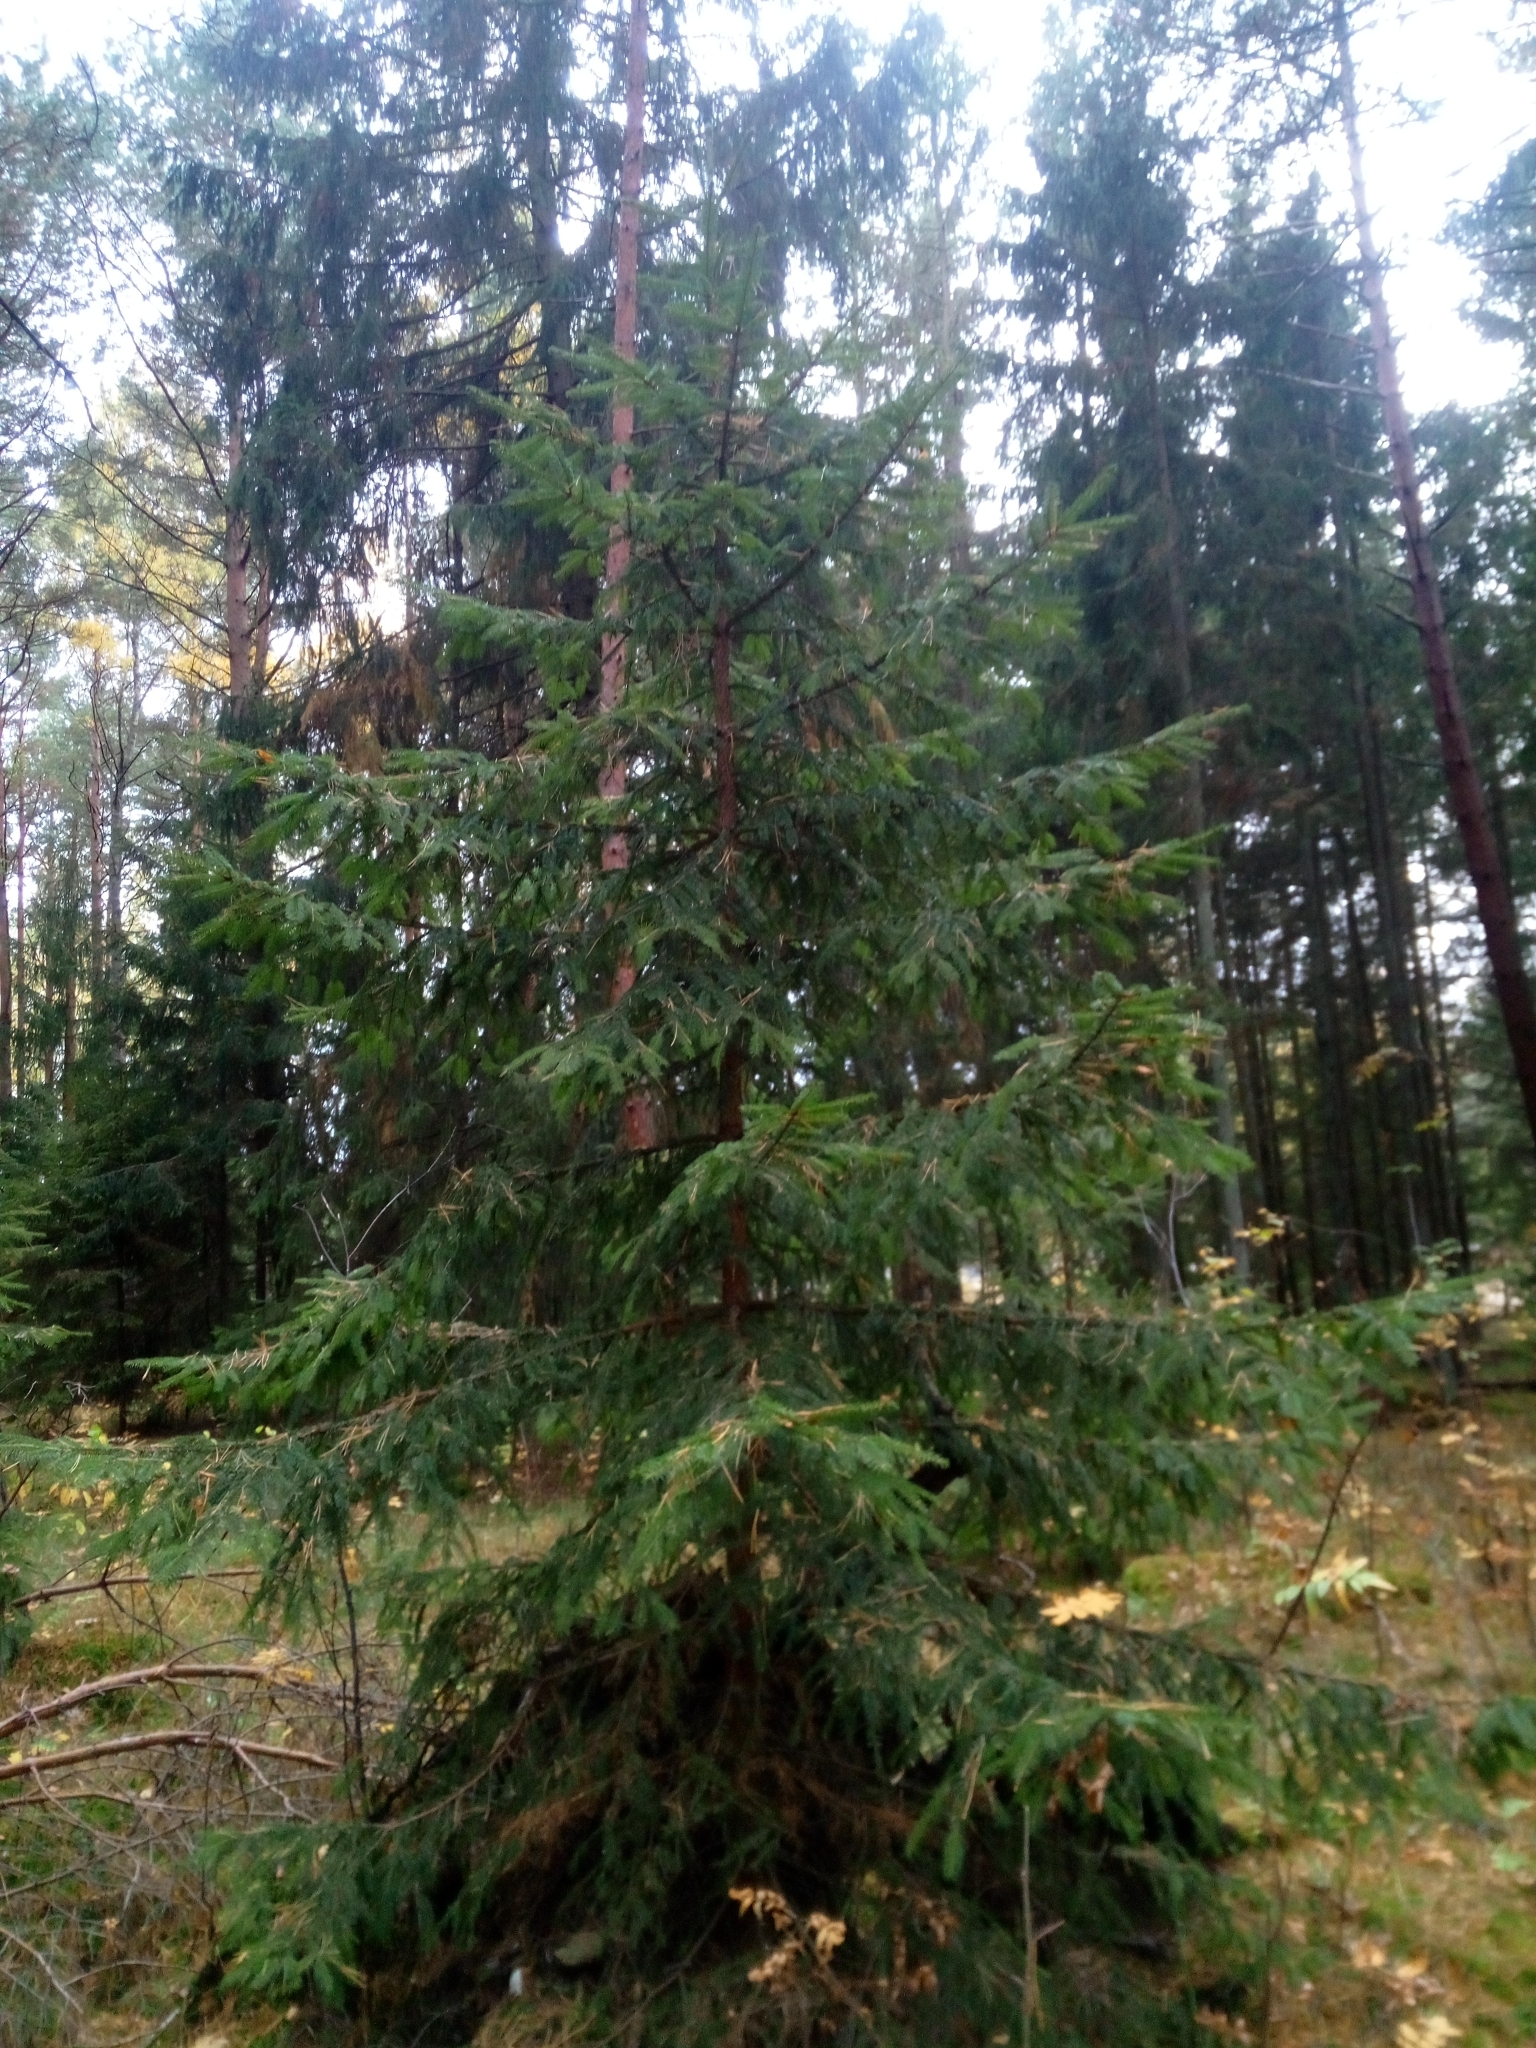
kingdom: Plantae
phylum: Tracheophyta
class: Pinopsida
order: Pinales
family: Pinaceae
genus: Picea
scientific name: Picea abies
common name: Norway spruce
